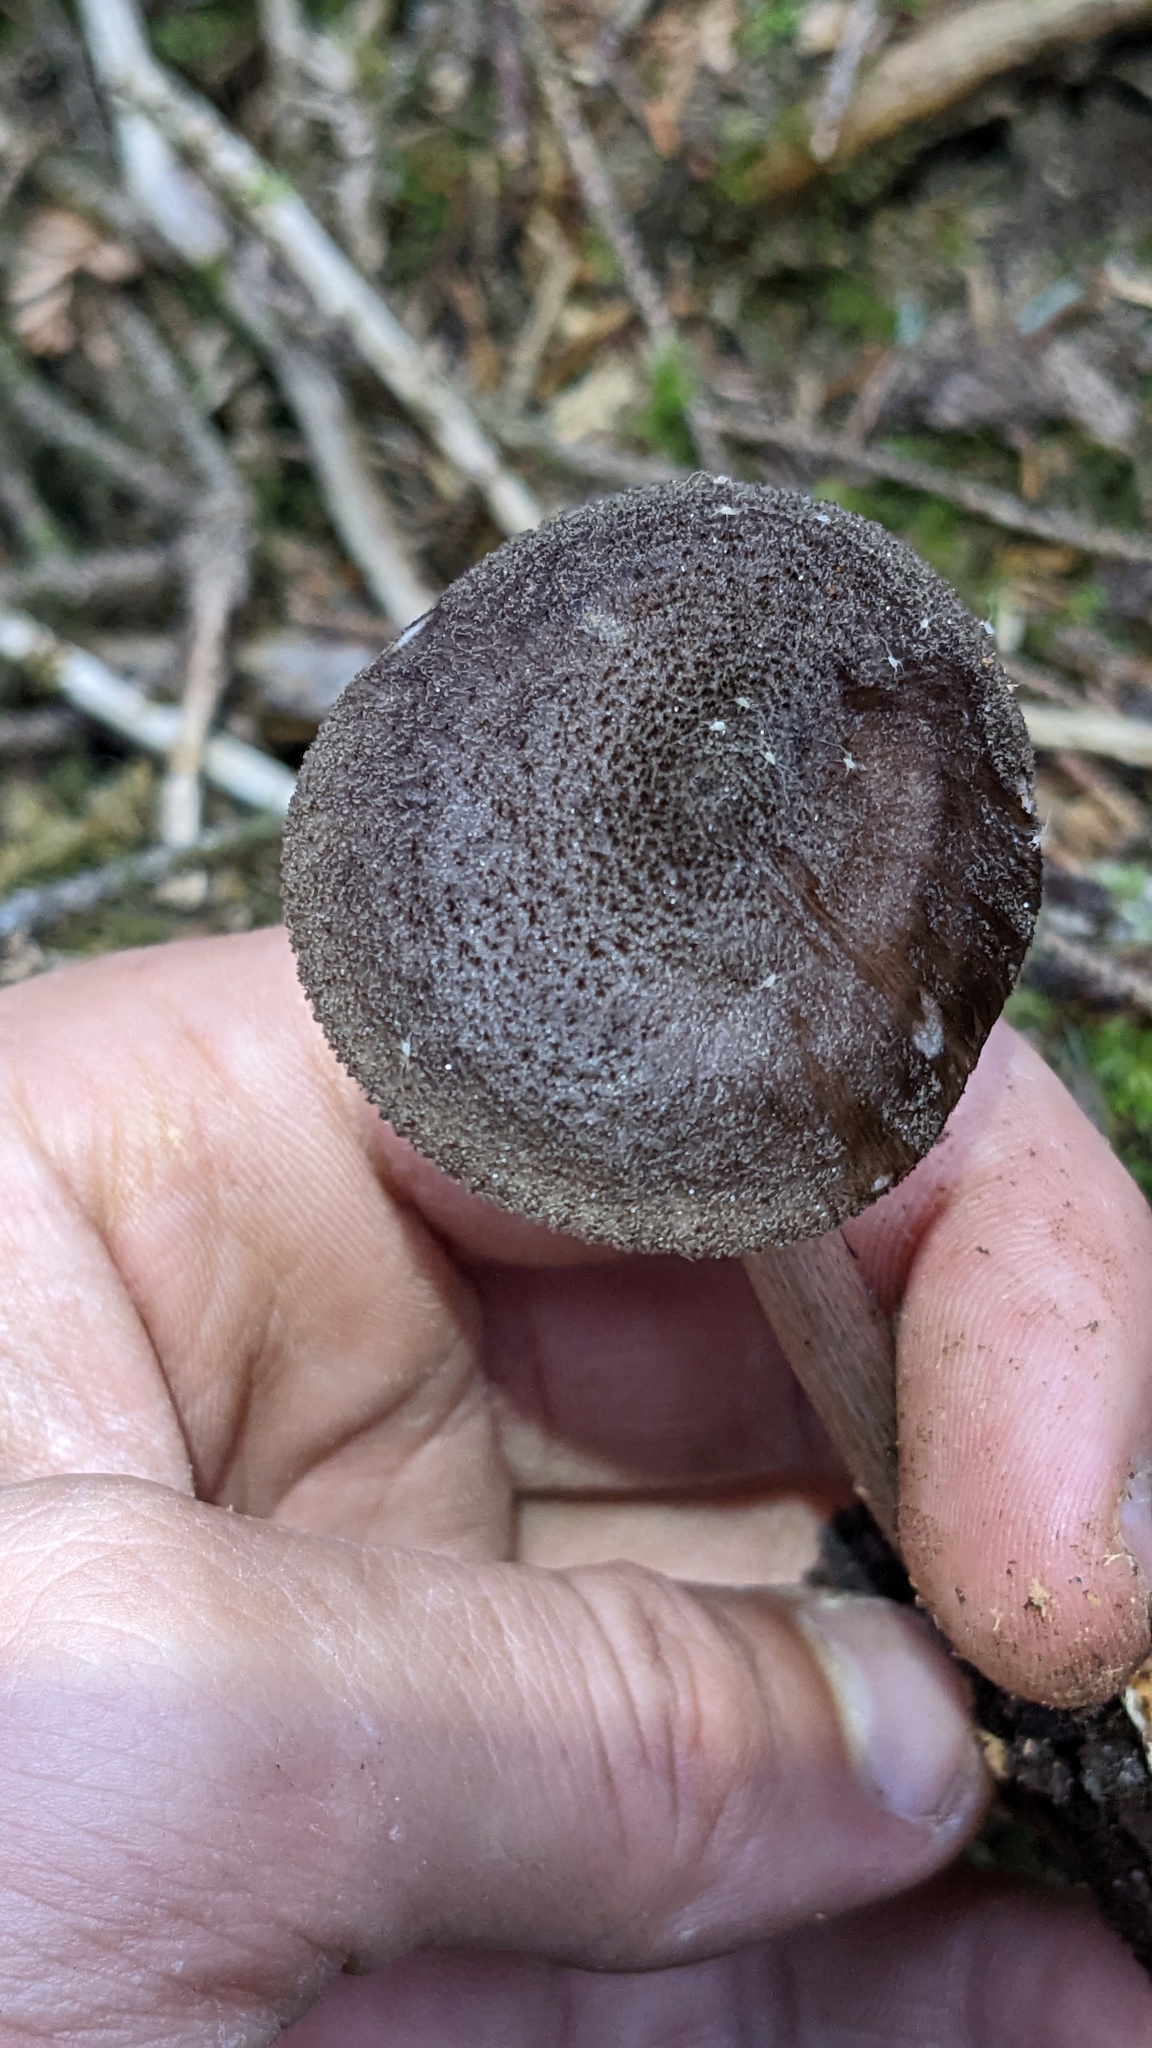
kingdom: Fungi
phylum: Basidiomycota
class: Agaricomycetes
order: Agaricales
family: Pluteaceae
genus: Pluteus
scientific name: Pluteus atromarginatus
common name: Blackedged shield
